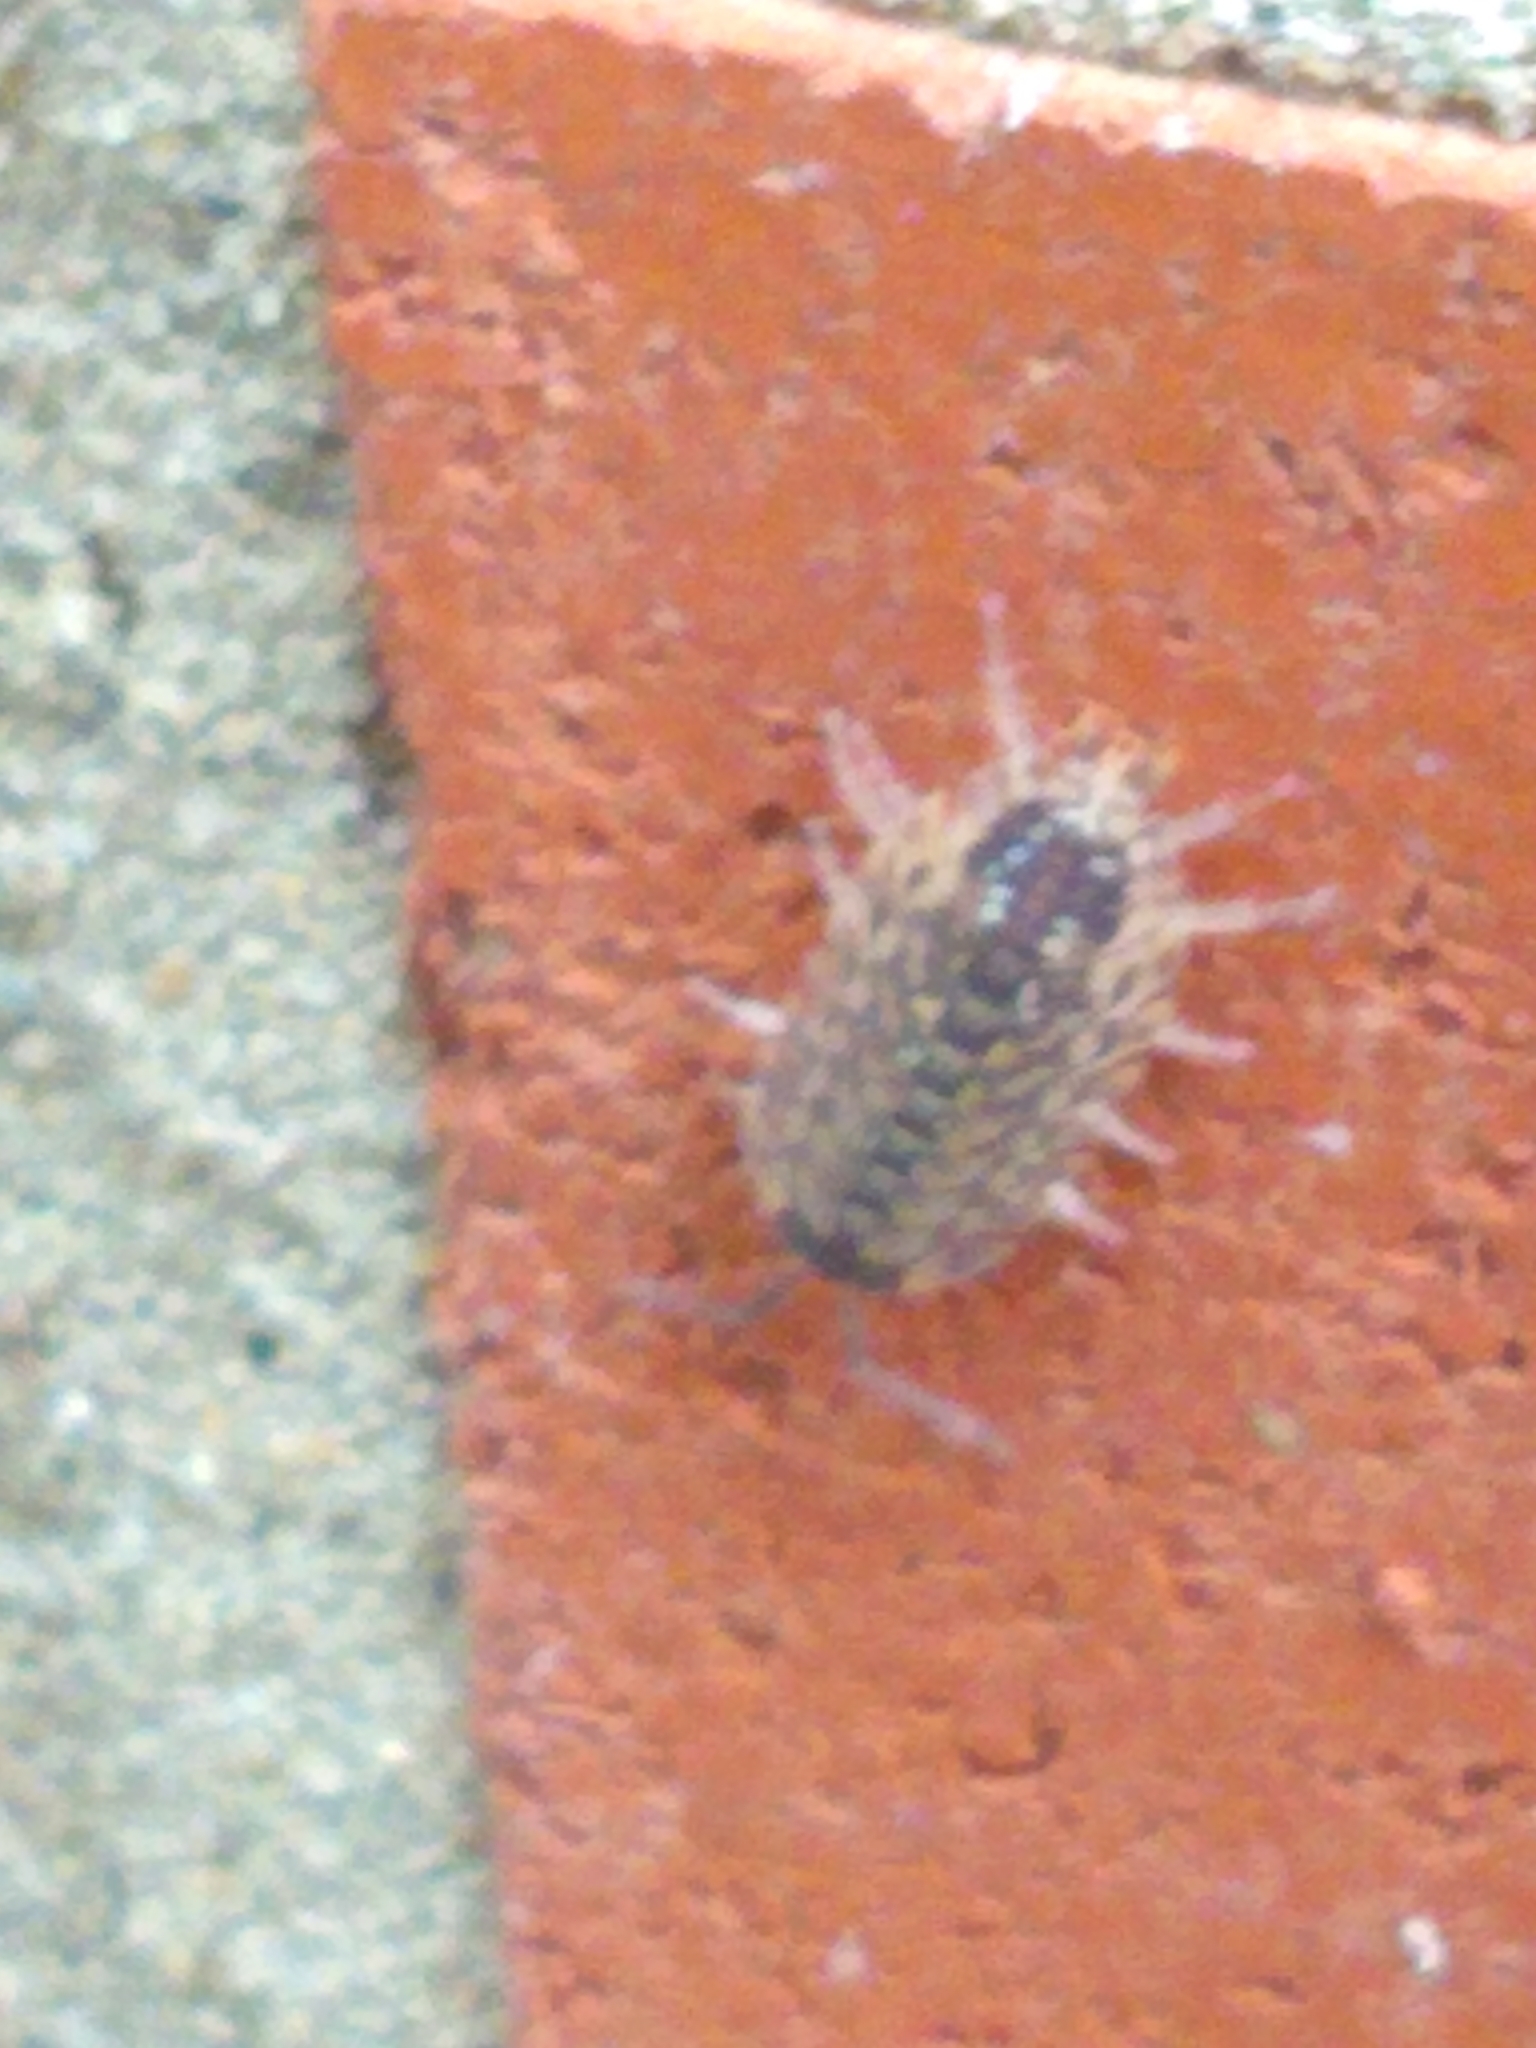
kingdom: Animalia
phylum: Arthropoda
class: Malacostraca
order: Isopoda
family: Porcellionidae
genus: Porcellio
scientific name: Porcellio spinicornis
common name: Painted woodlouse
